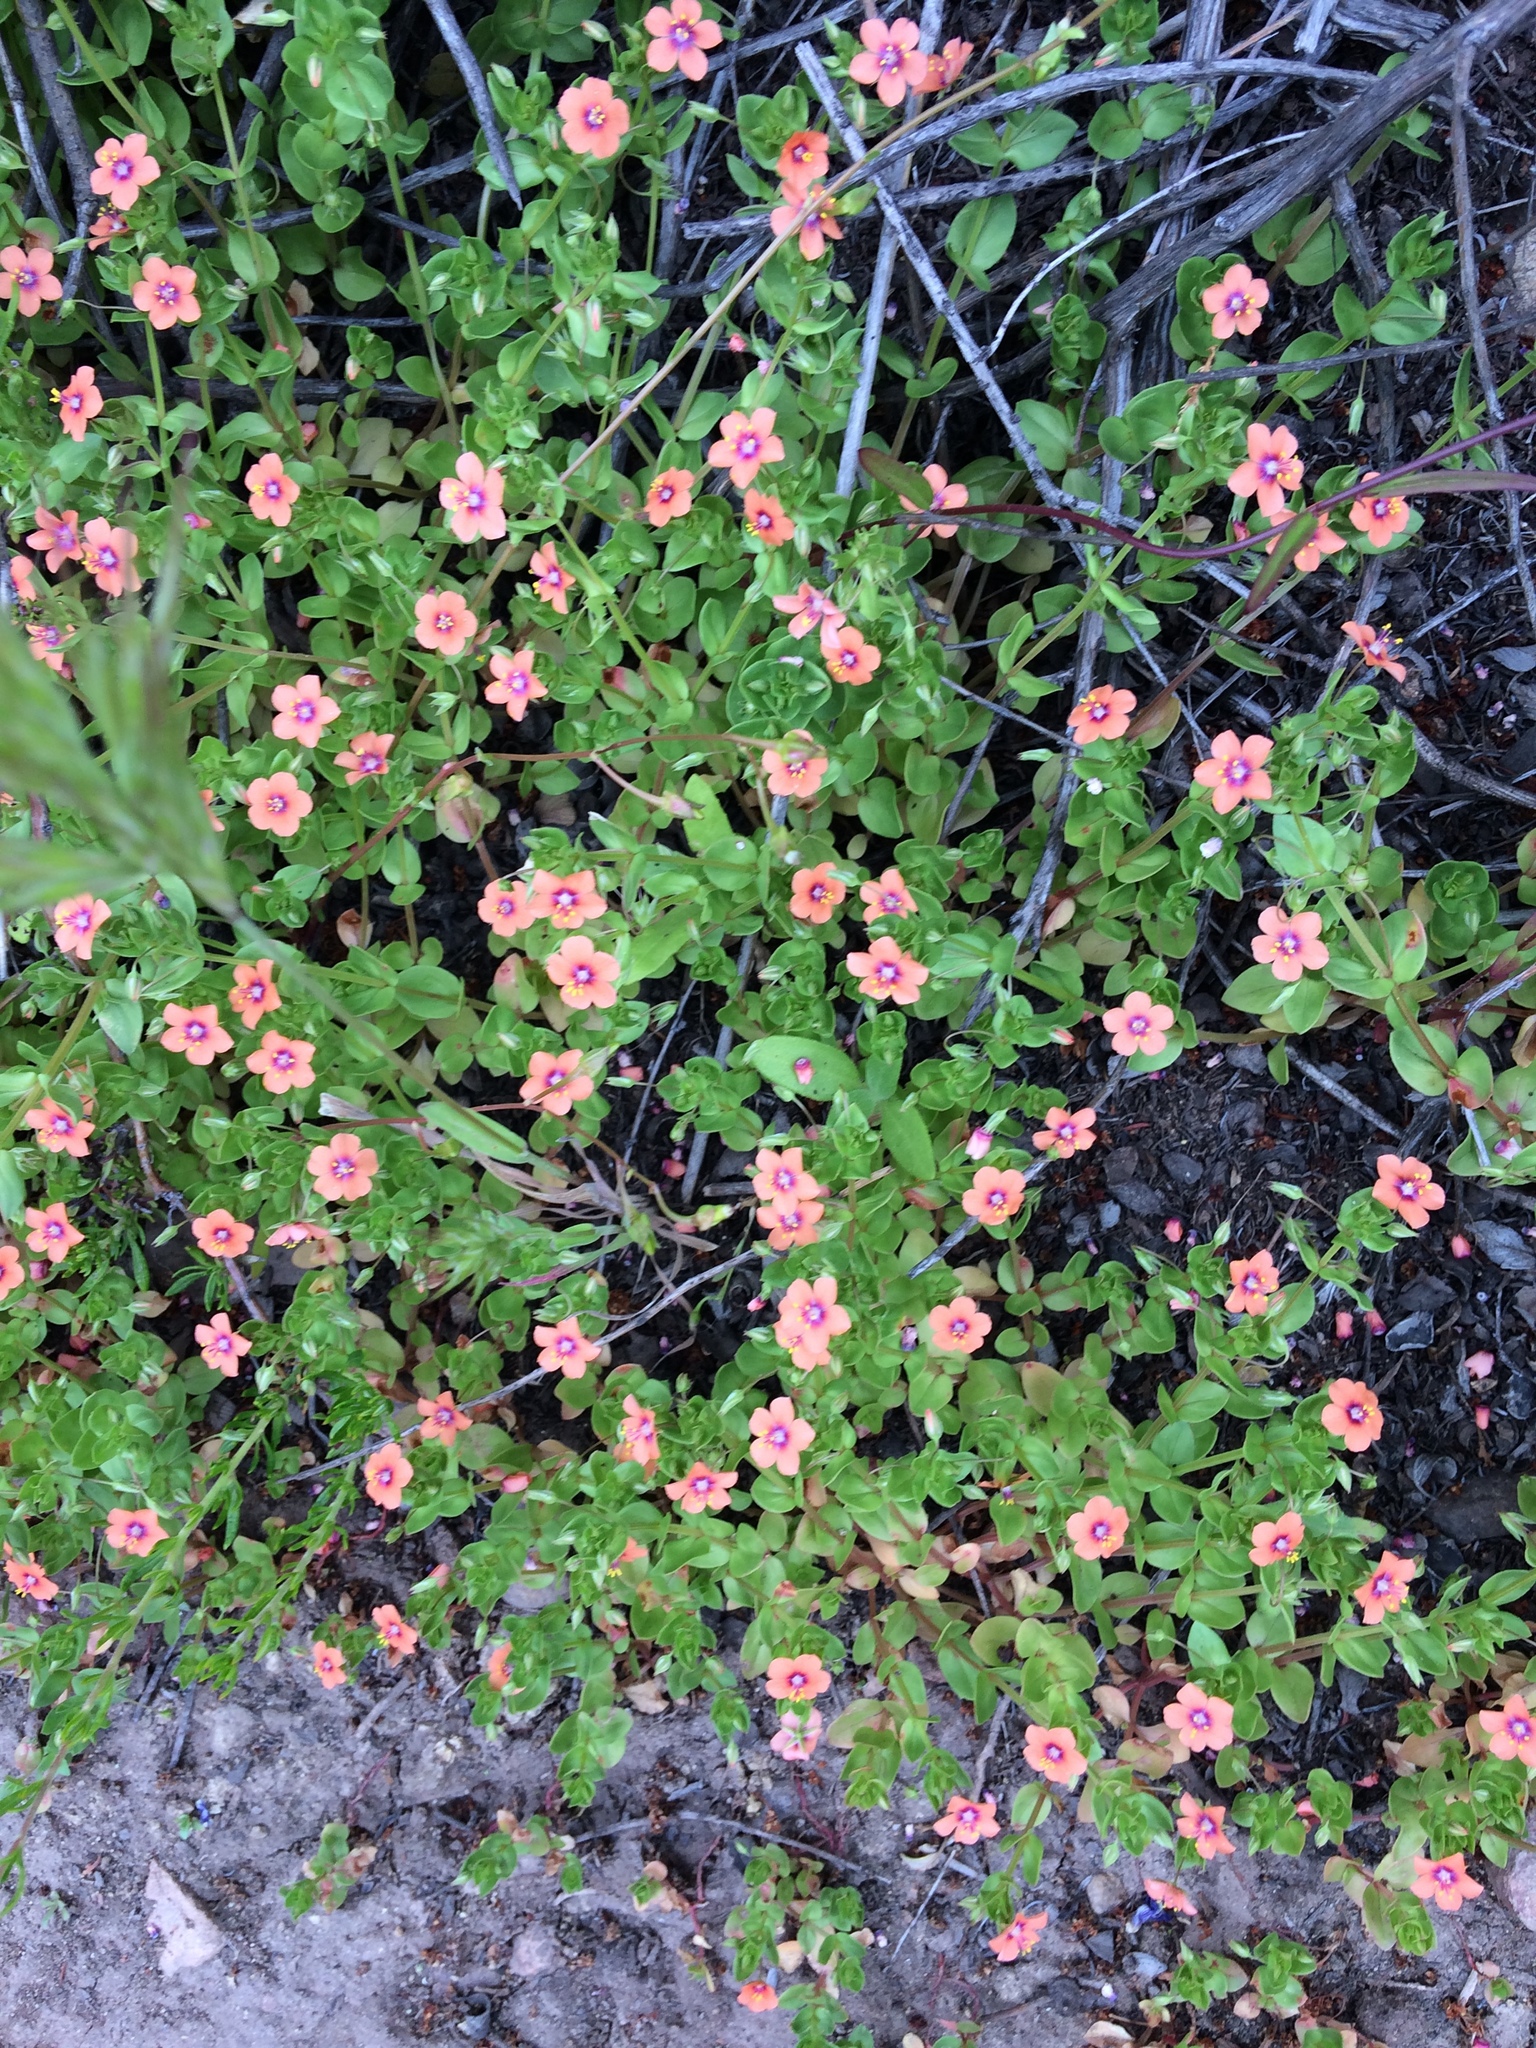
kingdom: Plantae
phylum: Tracheophyta
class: Magnoliopsida
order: Ericales
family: Primulaceae
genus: Lysimachia
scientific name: Lysimachia arvensis
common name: Scarlet pimpernel
